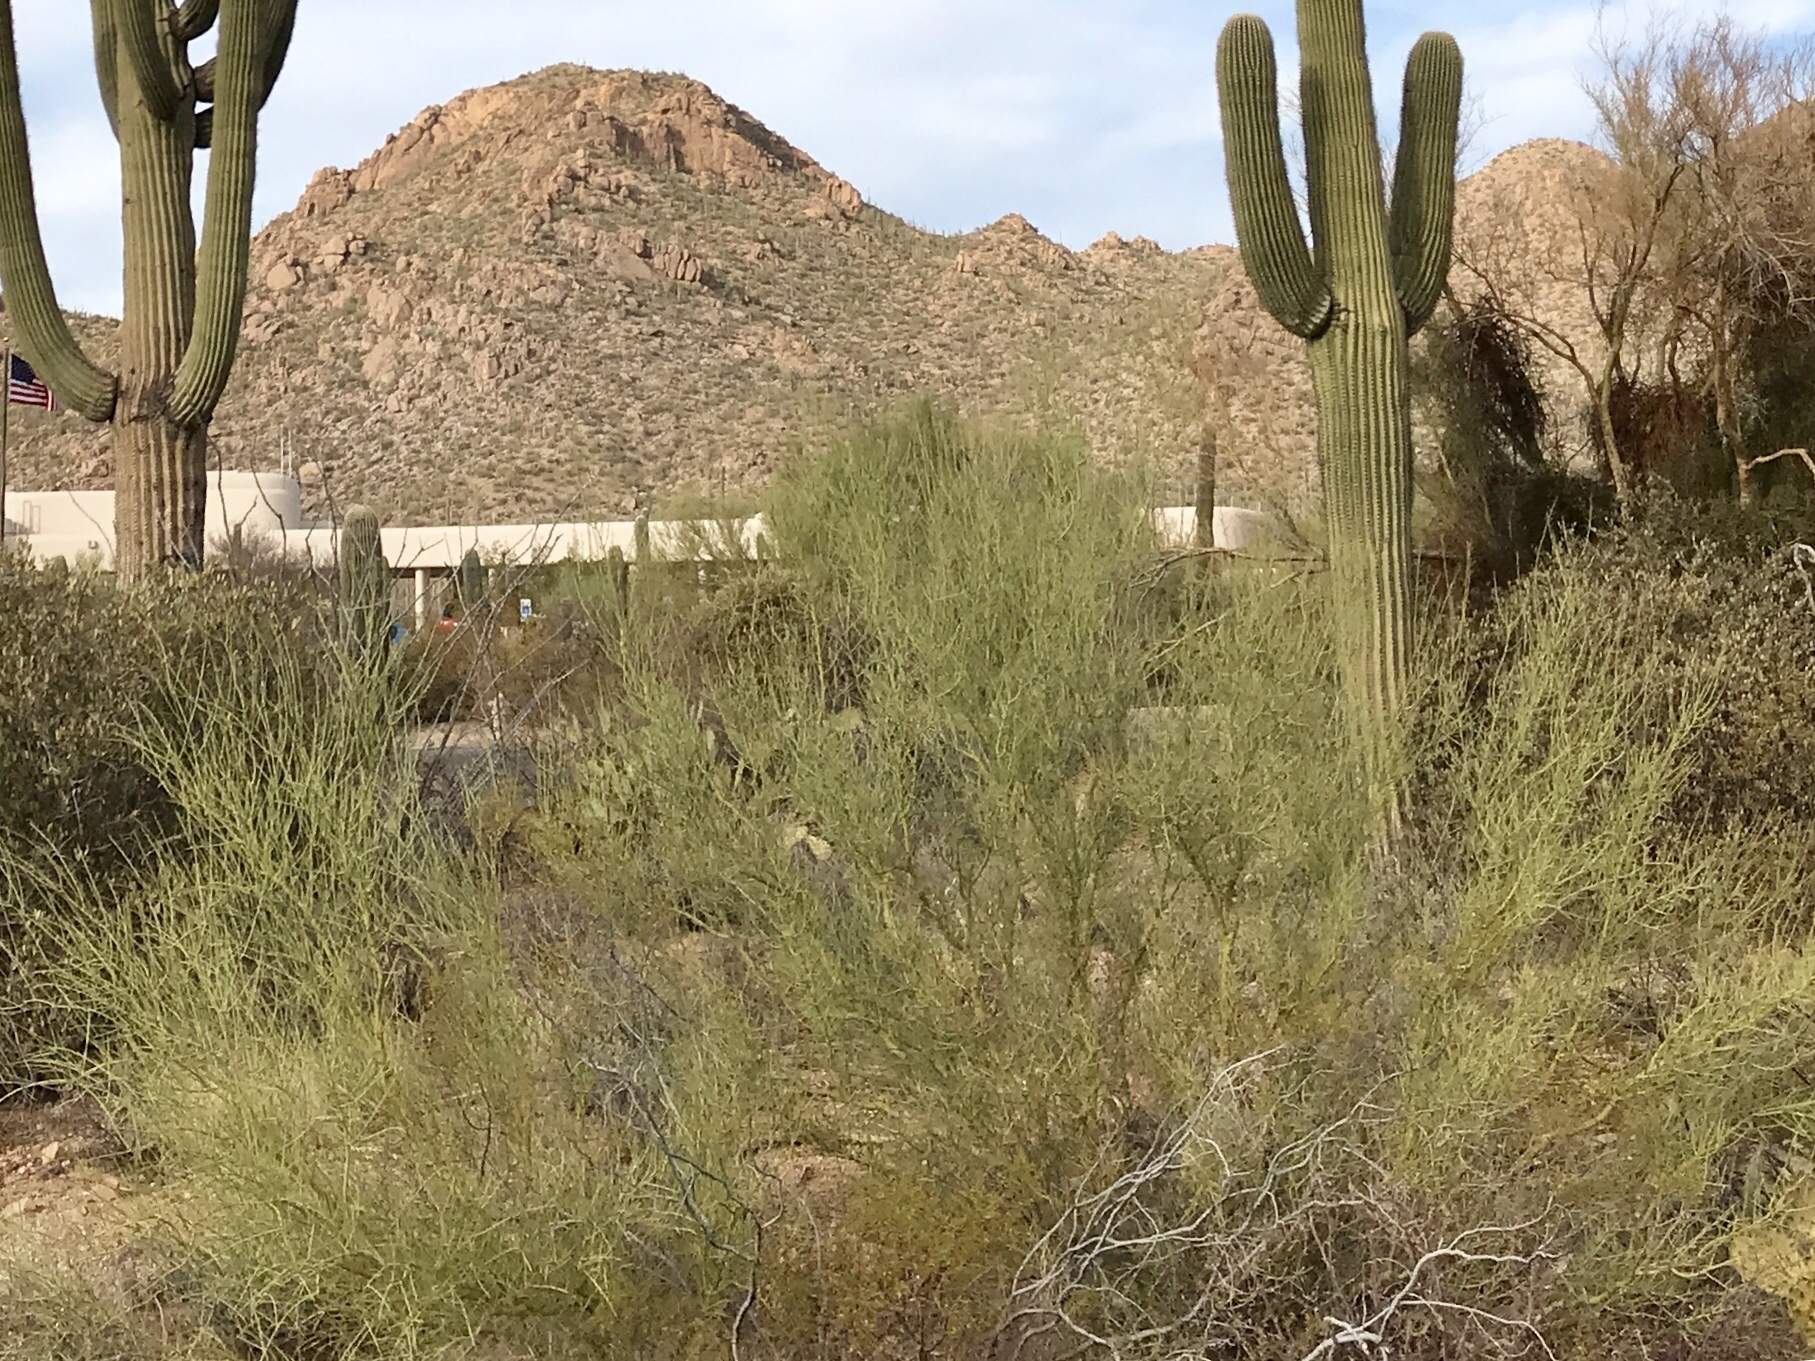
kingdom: Plantae
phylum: Tracheophyta
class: Magnoliopsida
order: Fabales
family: Fabaceae
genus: Parkinsonia
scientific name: Parkinsonia microphylla
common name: Yellow paloverde
